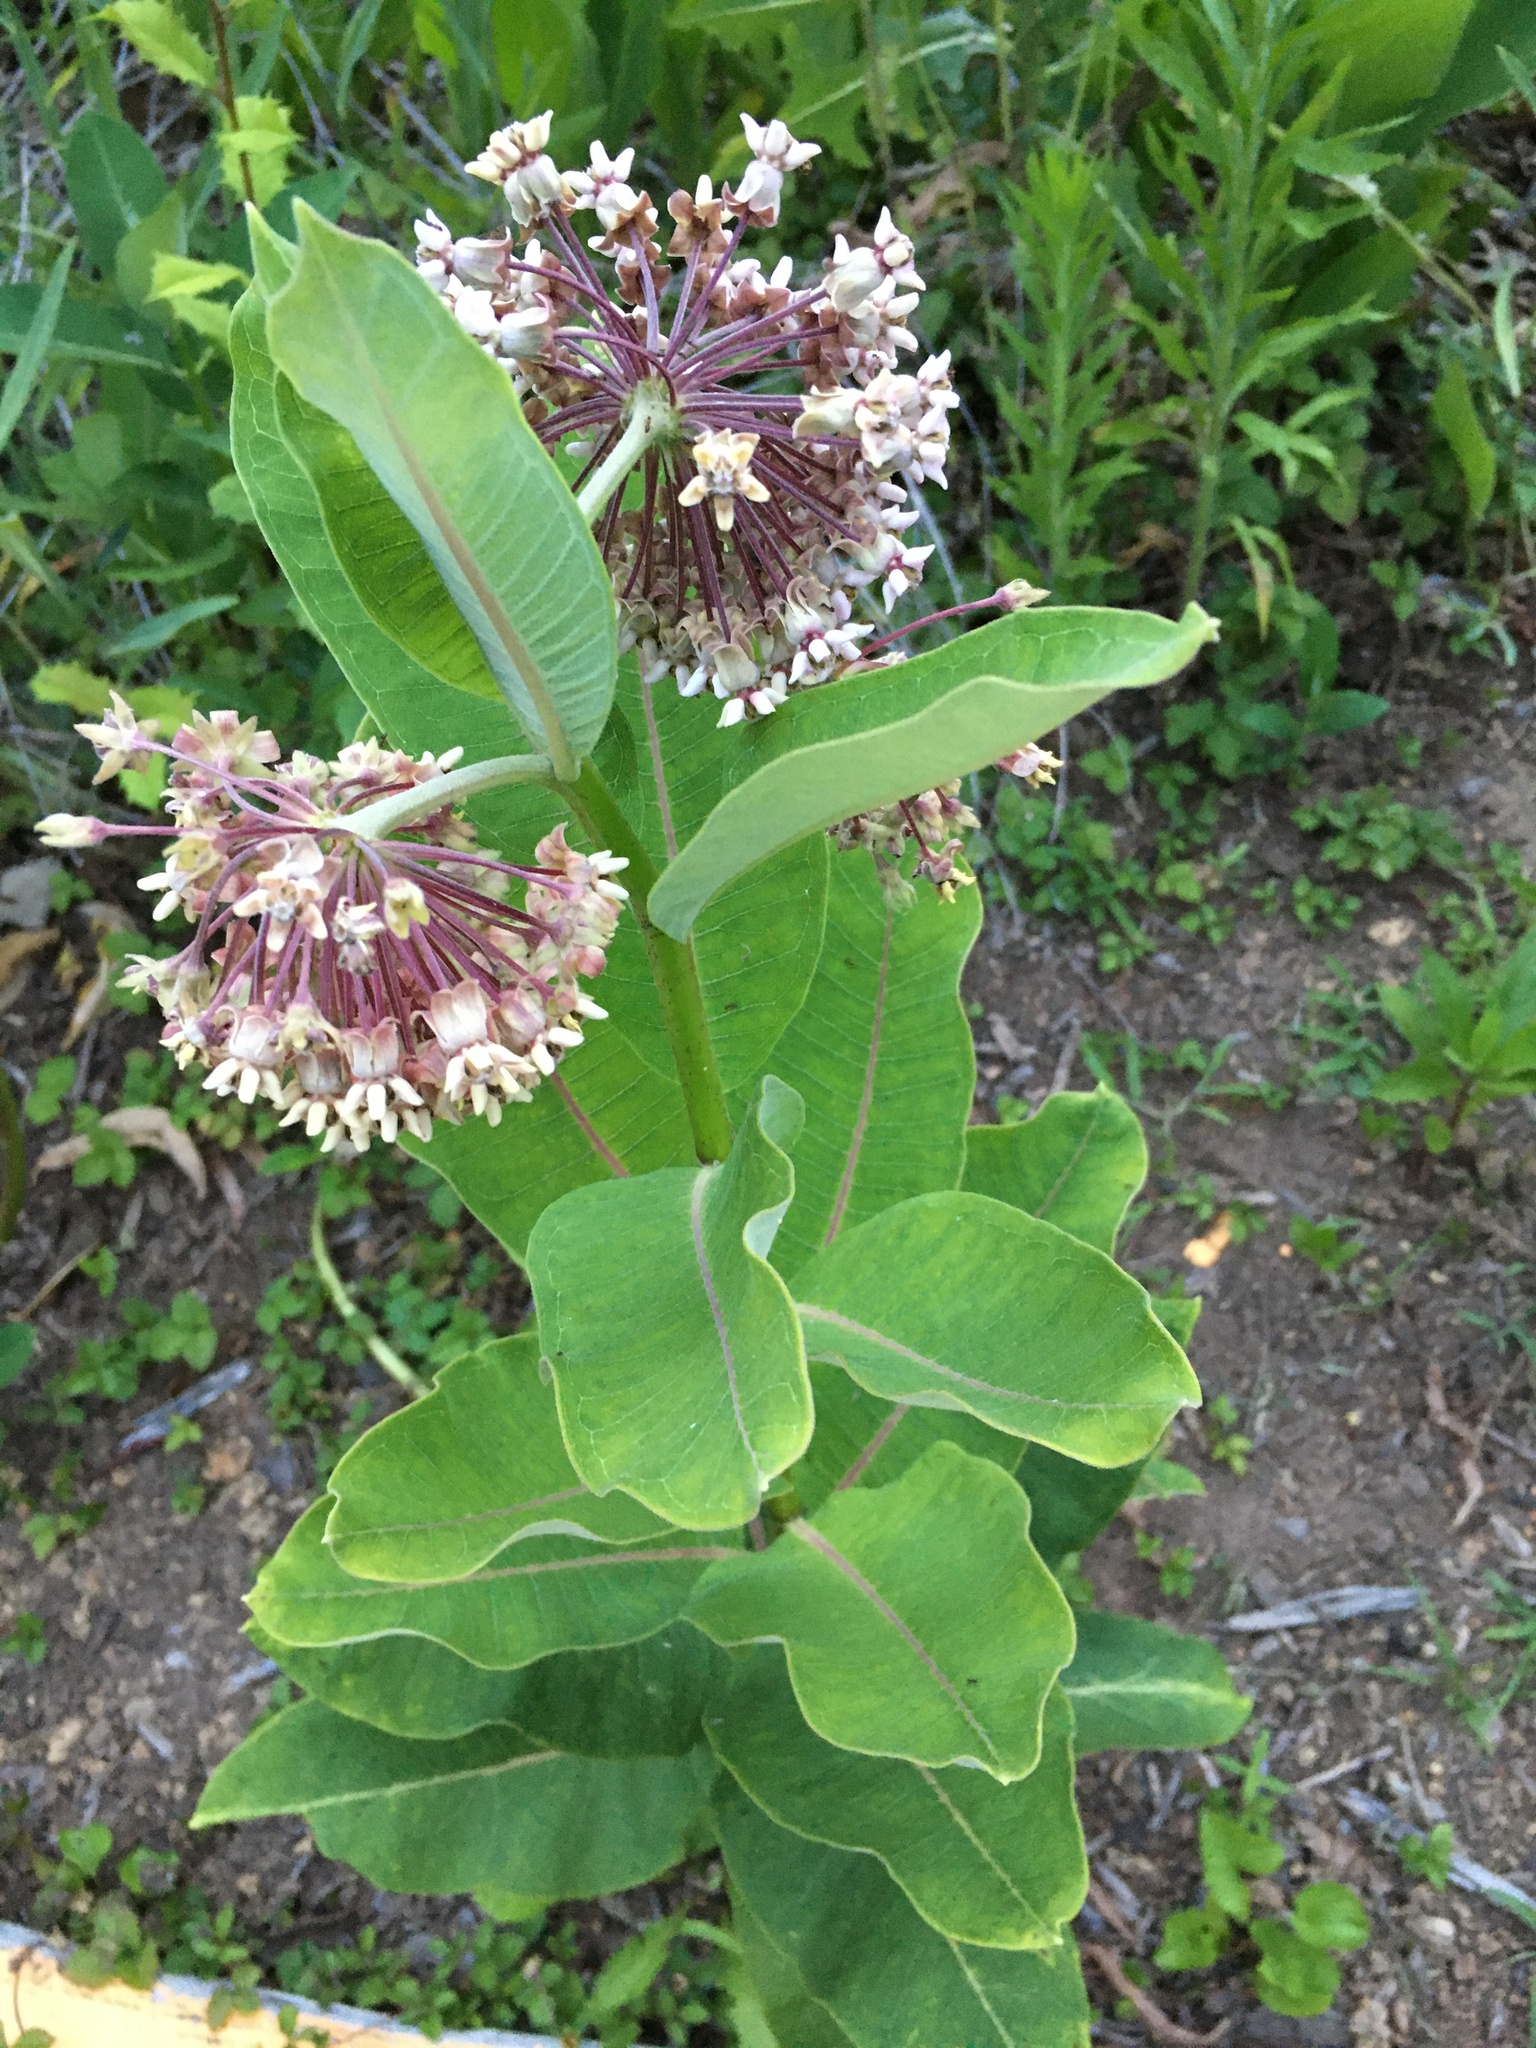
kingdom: Plantae
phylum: Tracheophyta
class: Magnoliopsida
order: Gentianales
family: Apocynaceae
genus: Asclepias
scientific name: Asclepias syriaca
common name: Common milkweed
